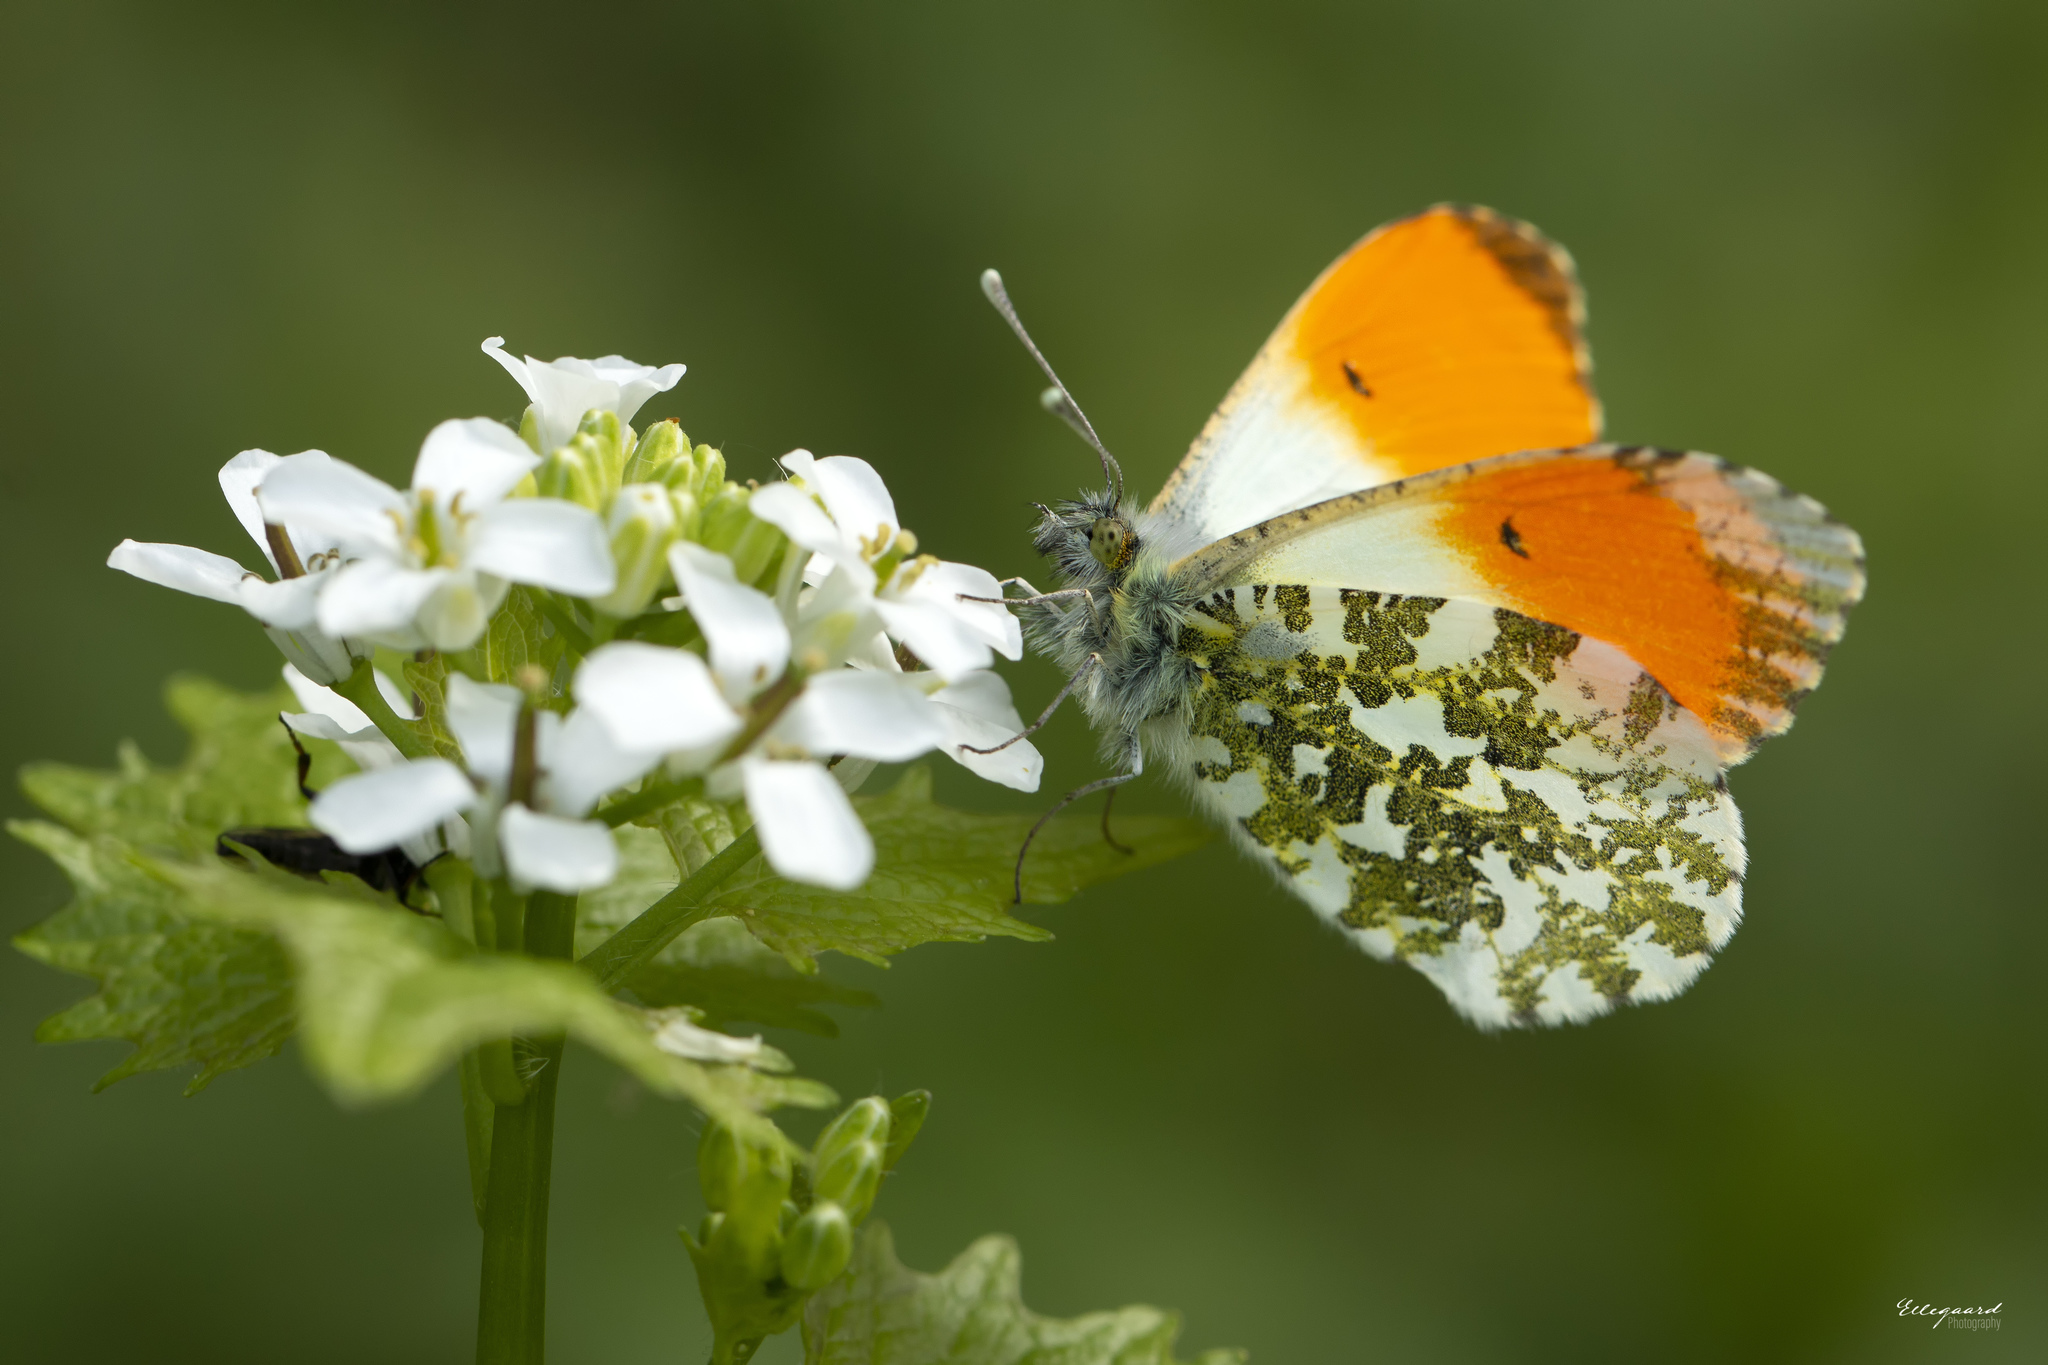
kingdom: Animalia
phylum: Arthropoda
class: Insecta
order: Lepidoptera
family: Pieridae
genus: Anthocharis
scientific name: Anthocharis cardamines
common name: Orange-tip
